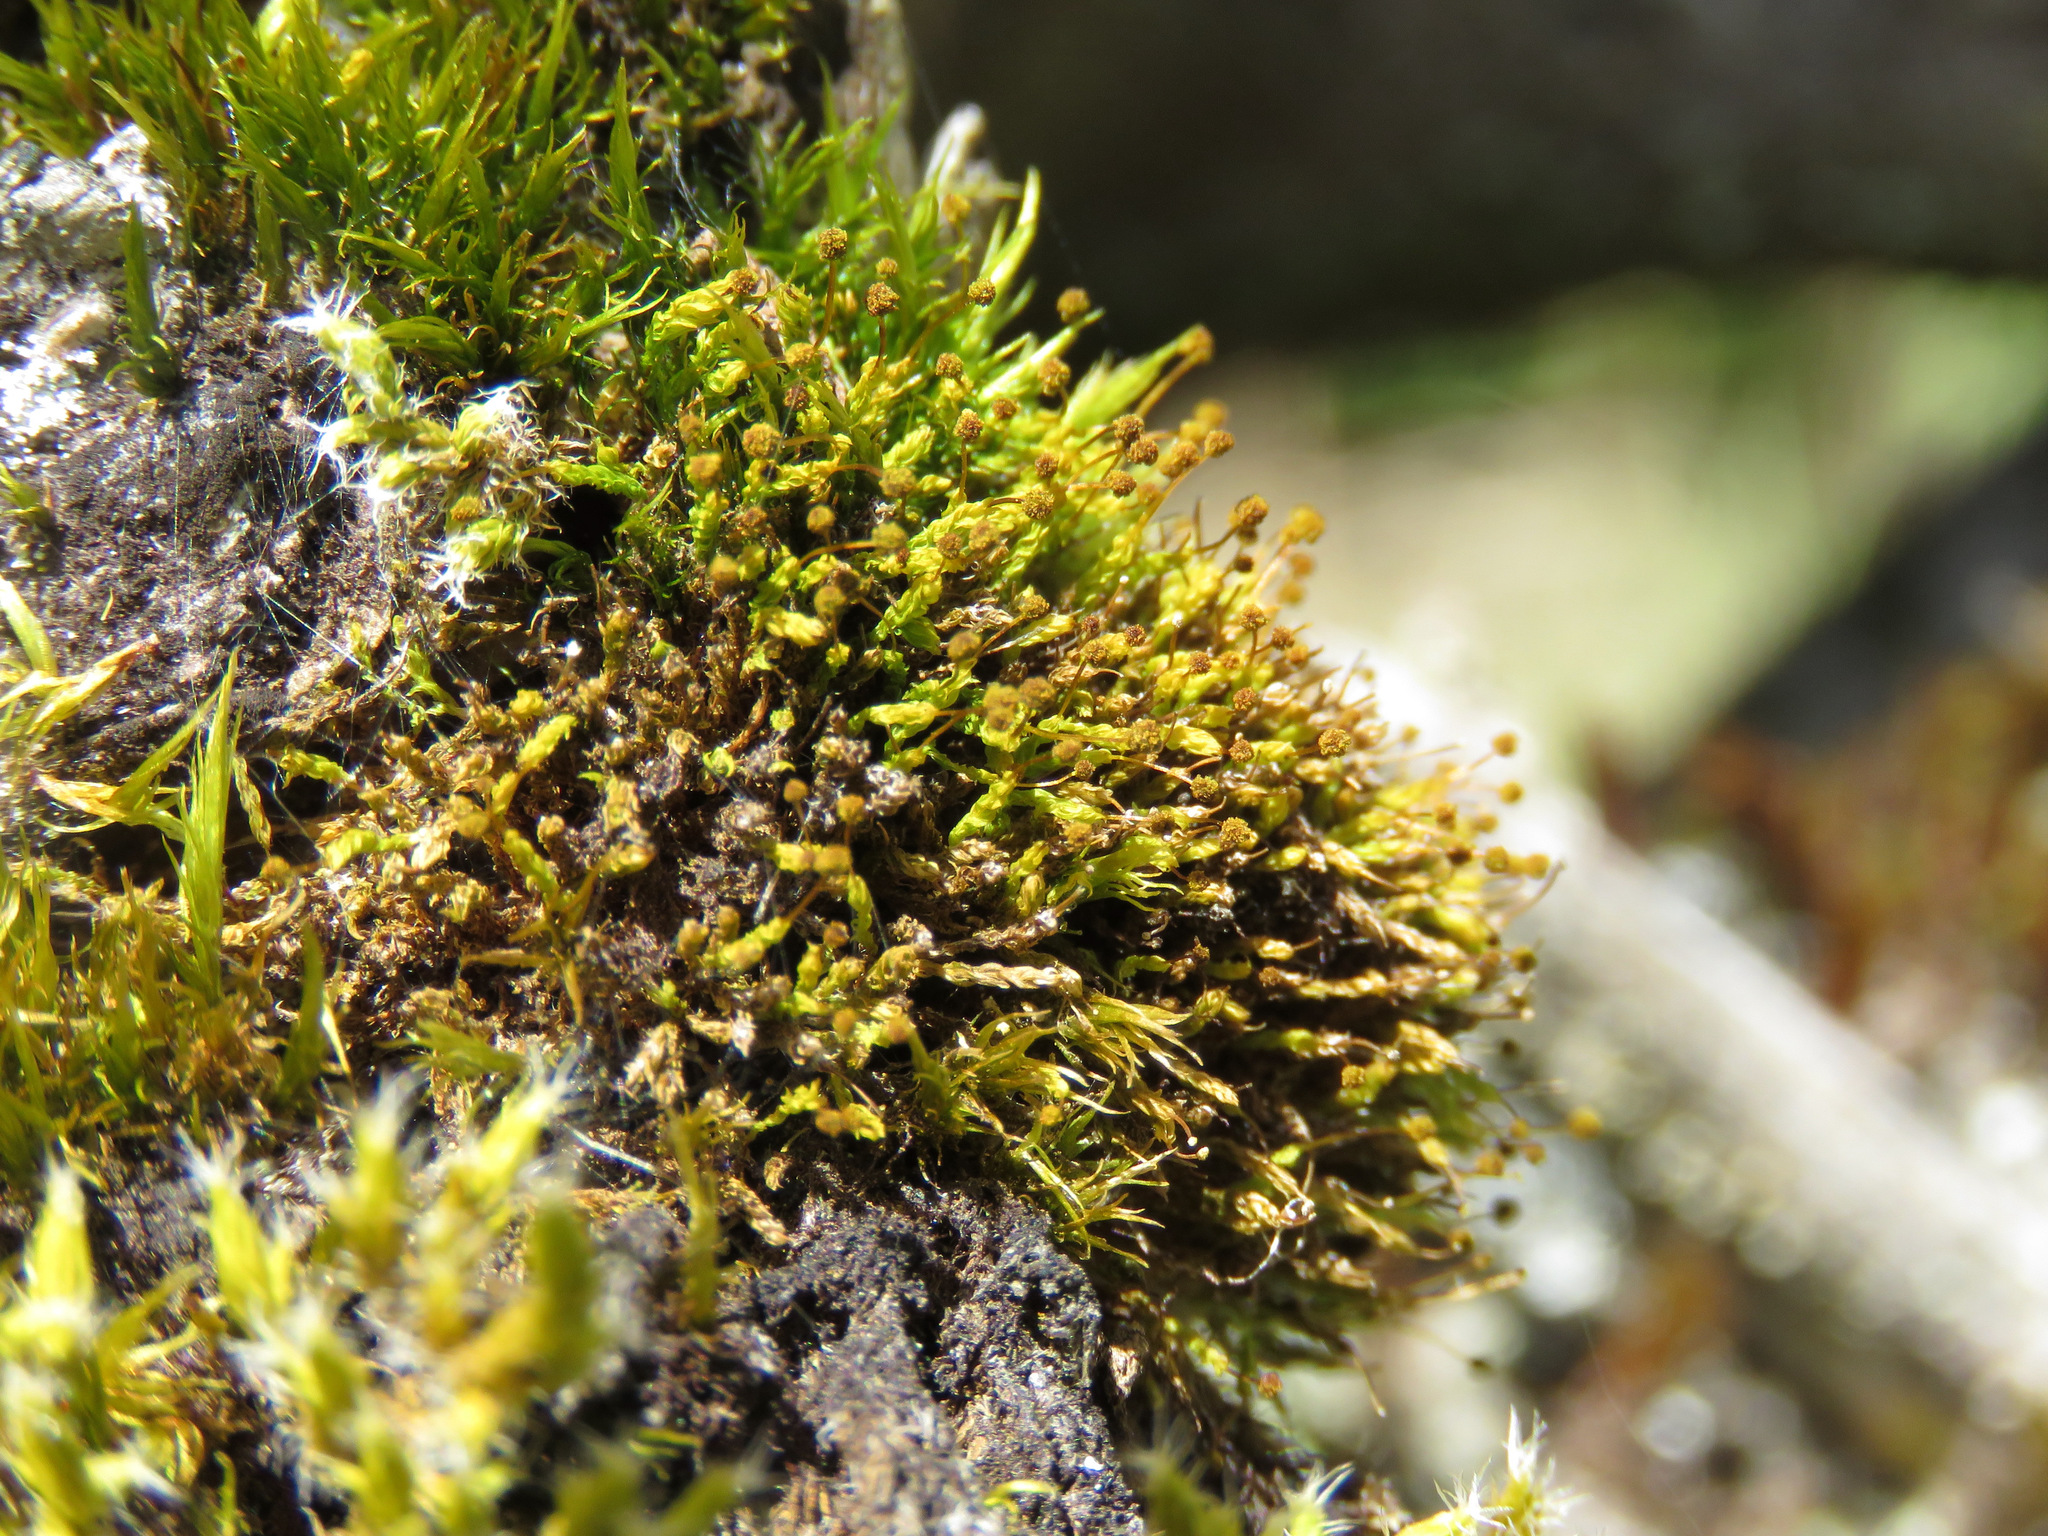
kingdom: Plantae
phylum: Bryophyta
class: Bryopsida
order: Aulacomniales
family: Aulacomniaceae
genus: Aulacomnium
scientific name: Aulacomnium androgynum
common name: Little groove moss
